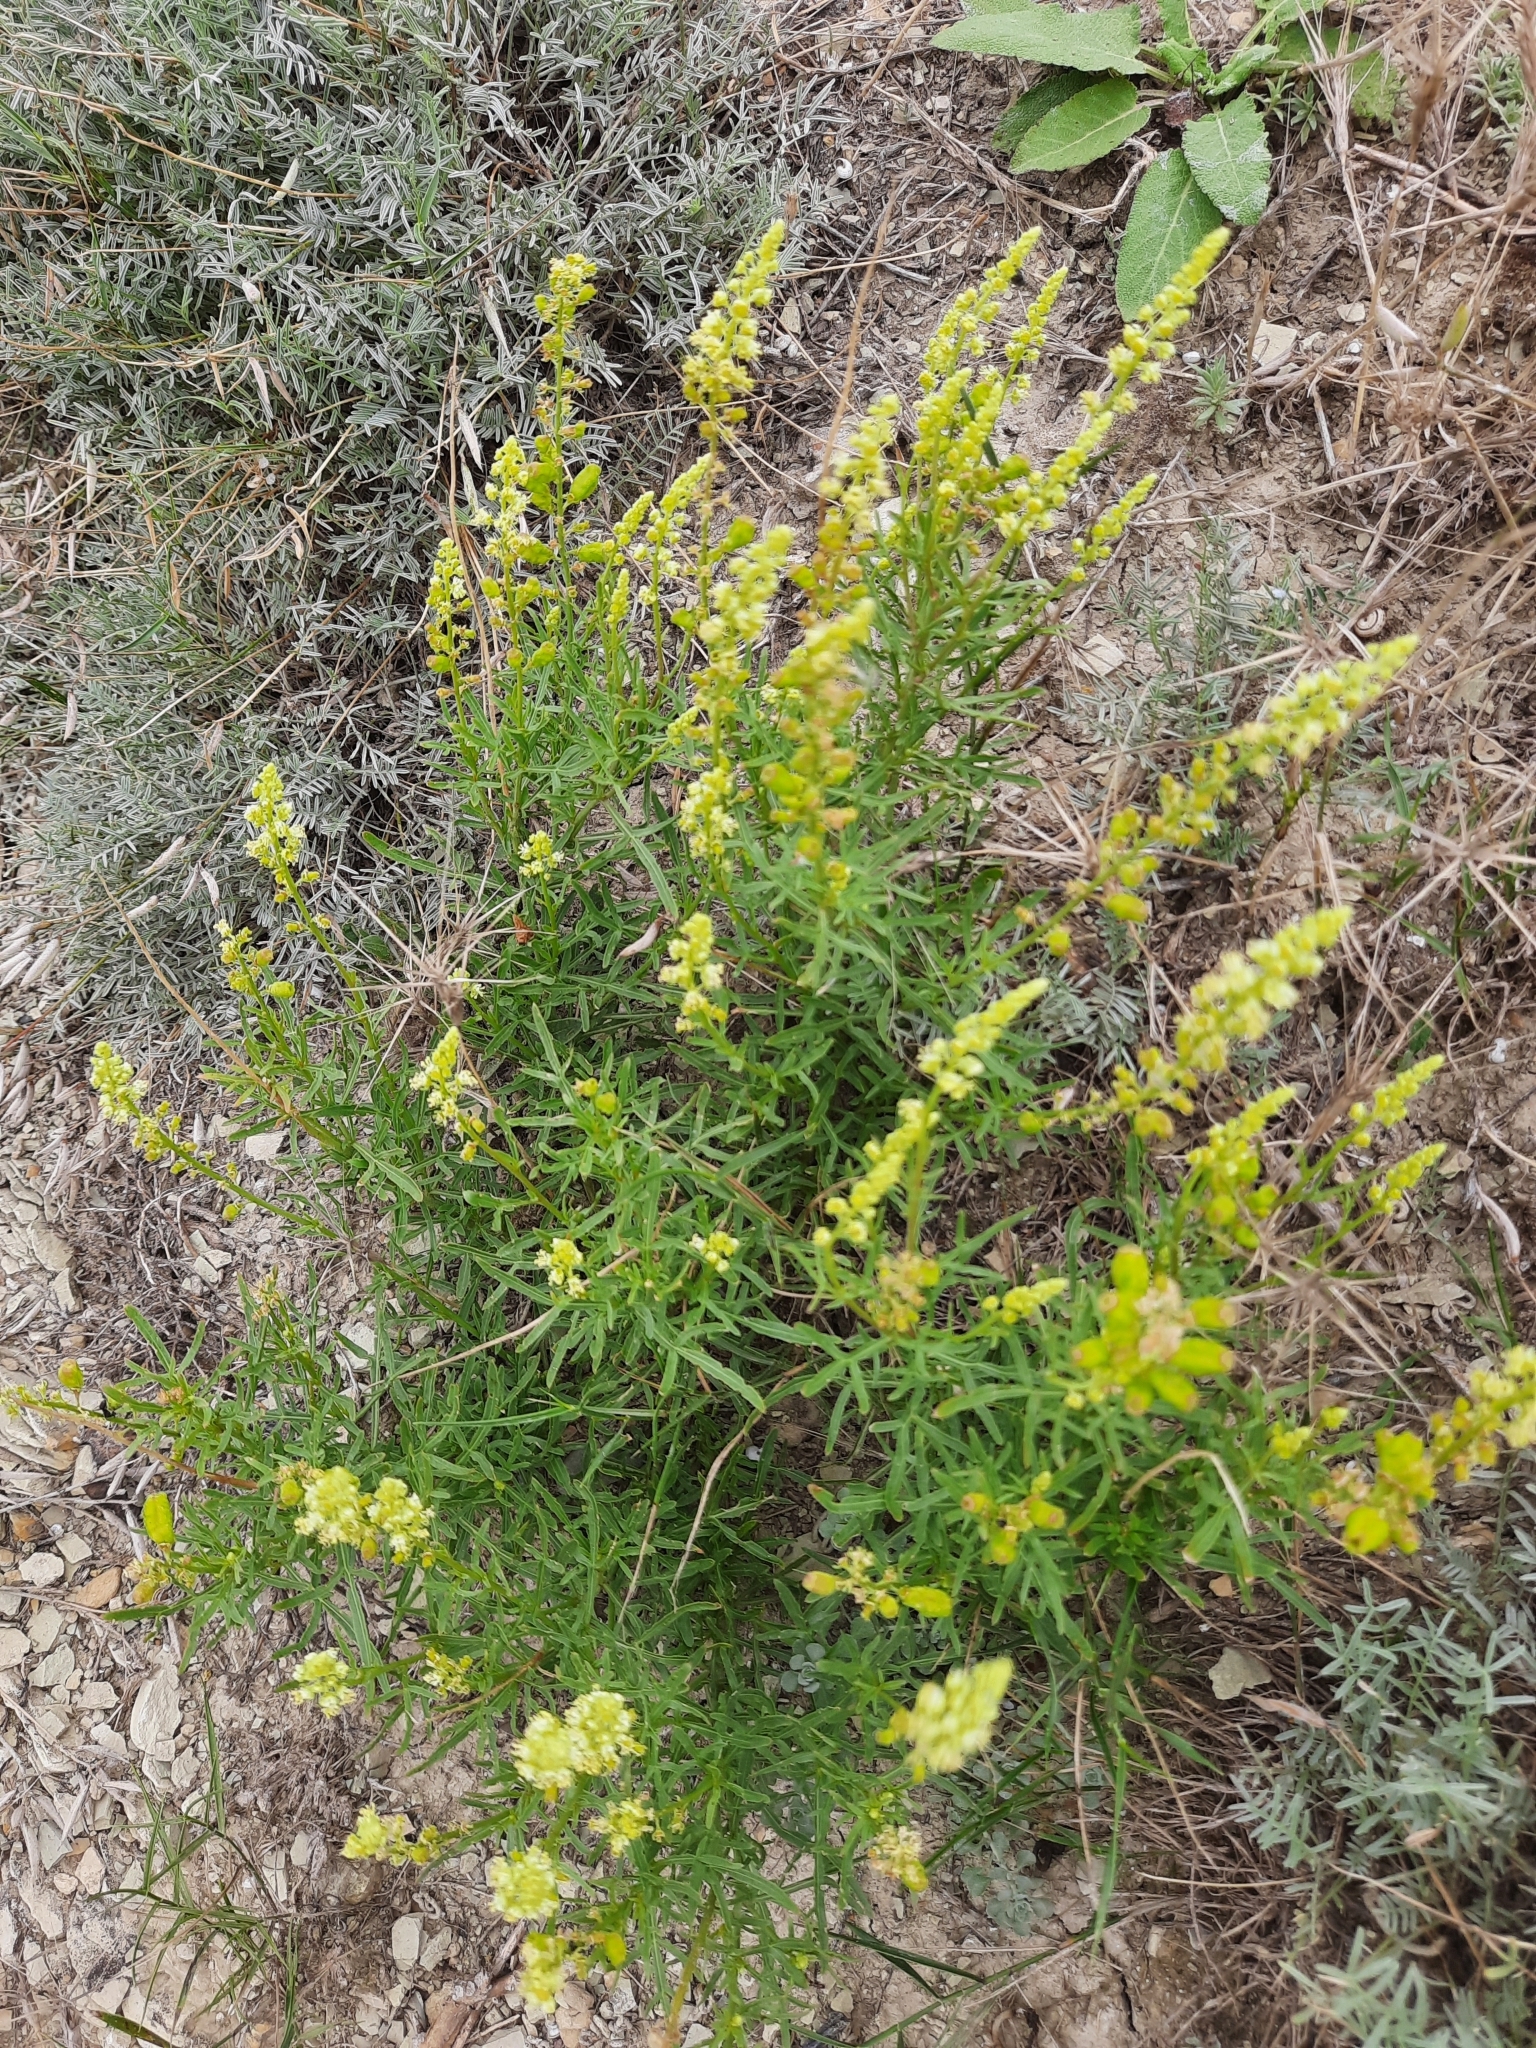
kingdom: Plantae
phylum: Tracheophyta
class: Magnoliopsida
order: Gentianales
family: Rubiaceae
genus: Galium
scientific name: Galium verum
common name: Lady's bedstraw
